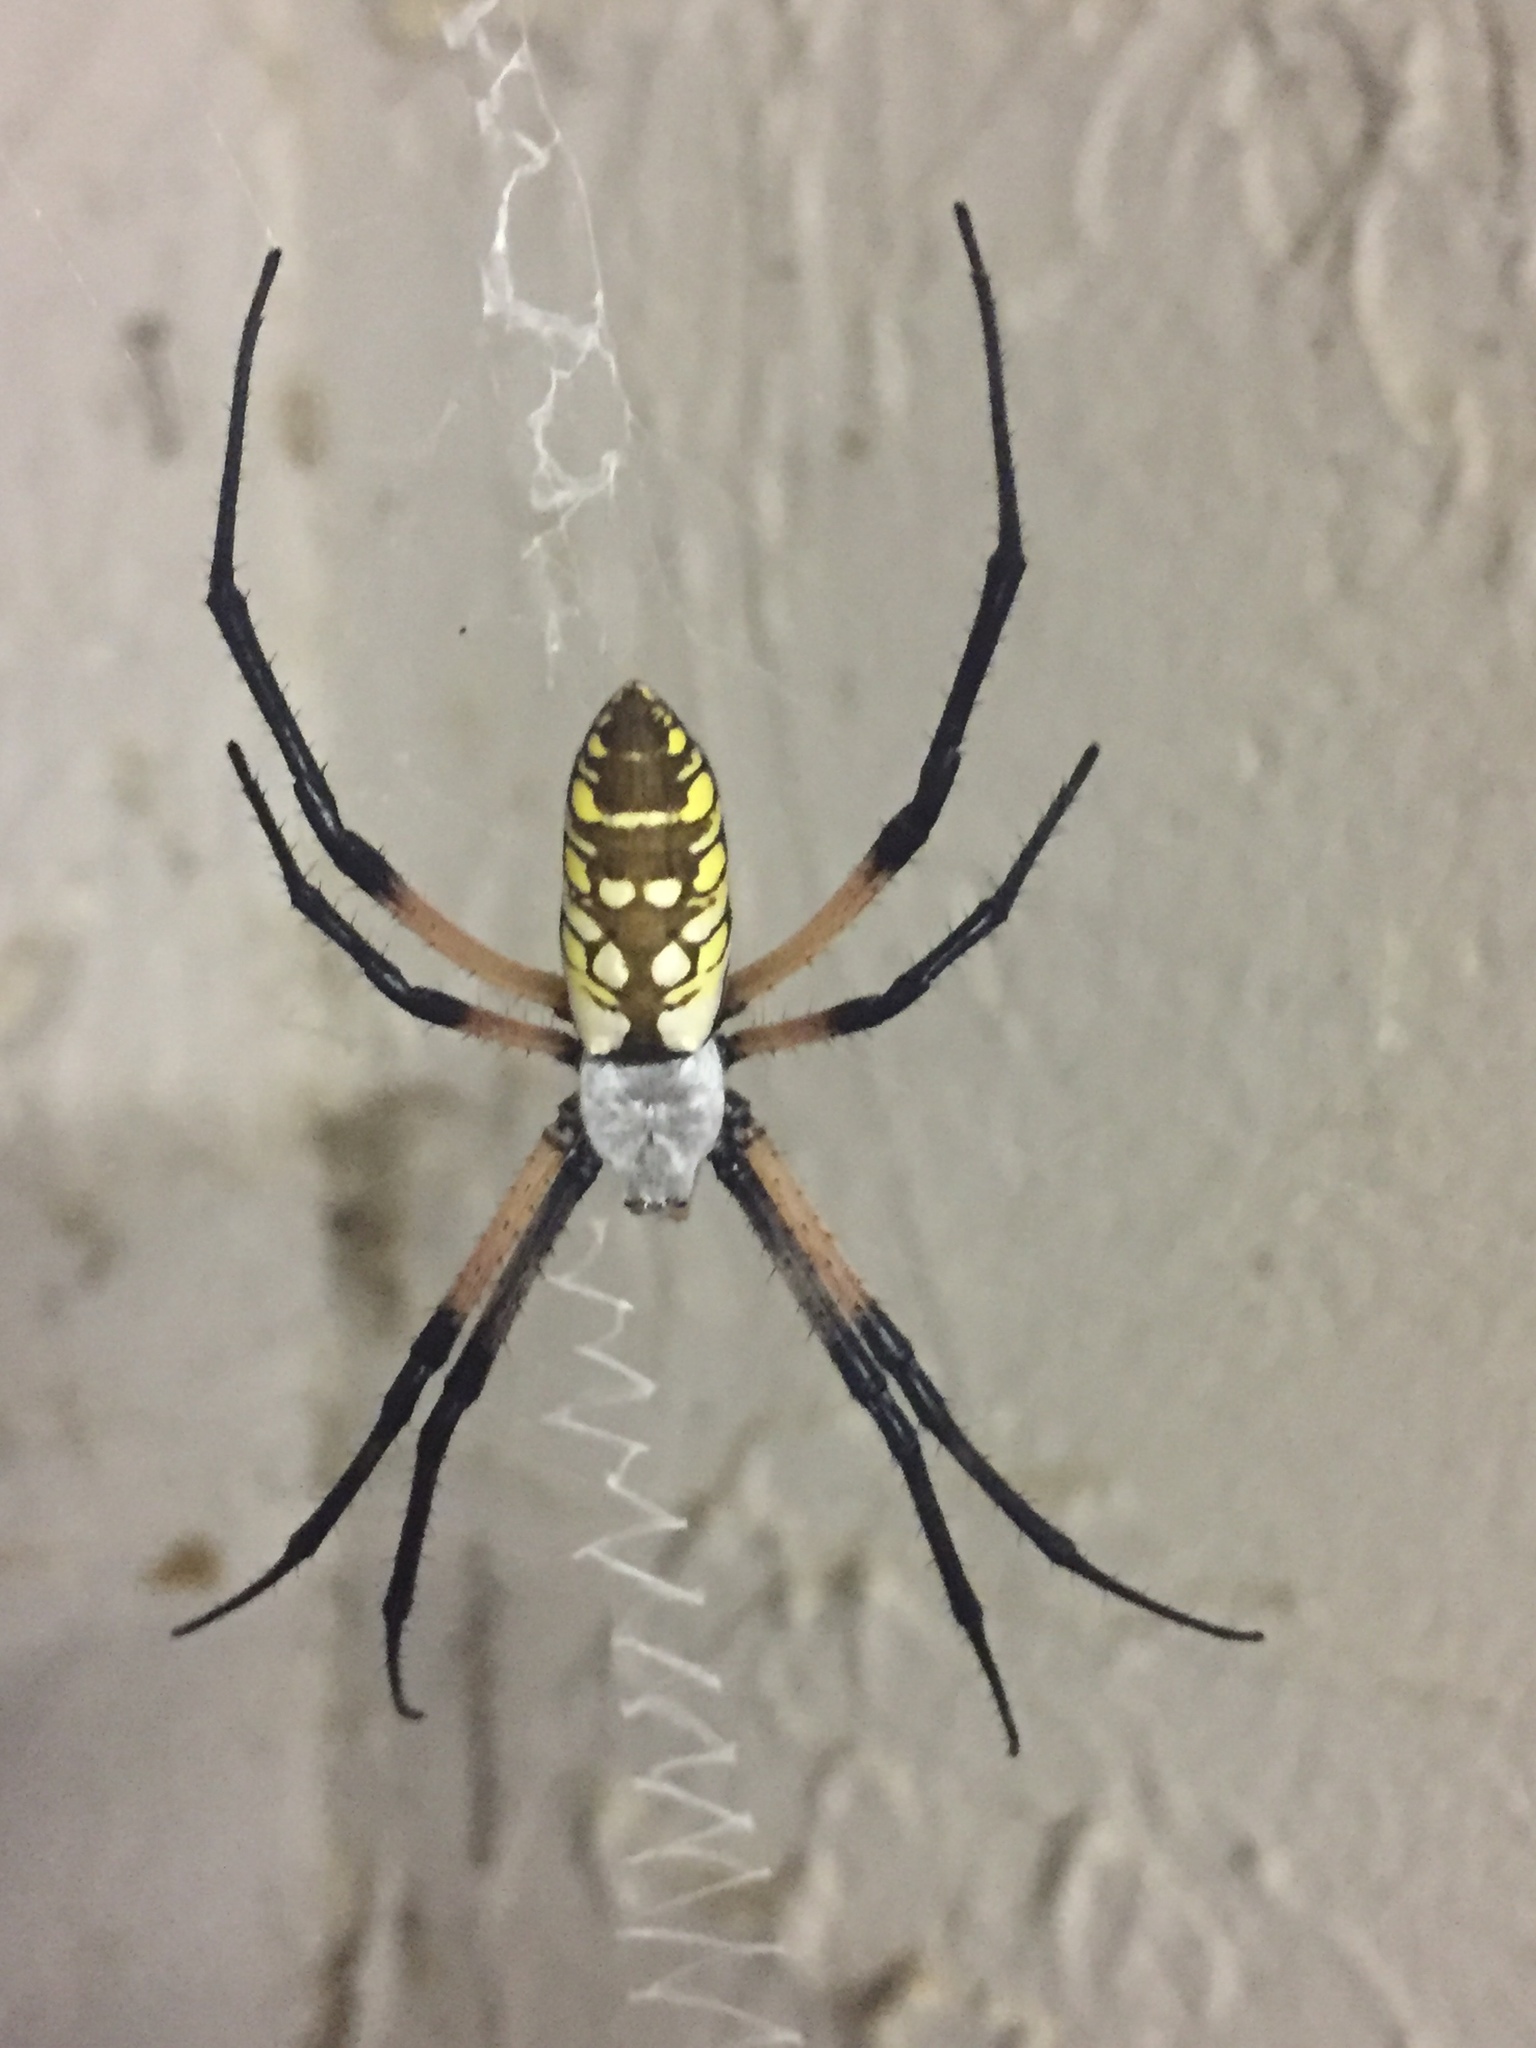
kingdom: Animalia
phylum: Arthropoda
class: Arachnida
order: Araneae
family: Araneidae
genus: Argiope
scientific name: Argiope aurantia
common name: Orb weavers
